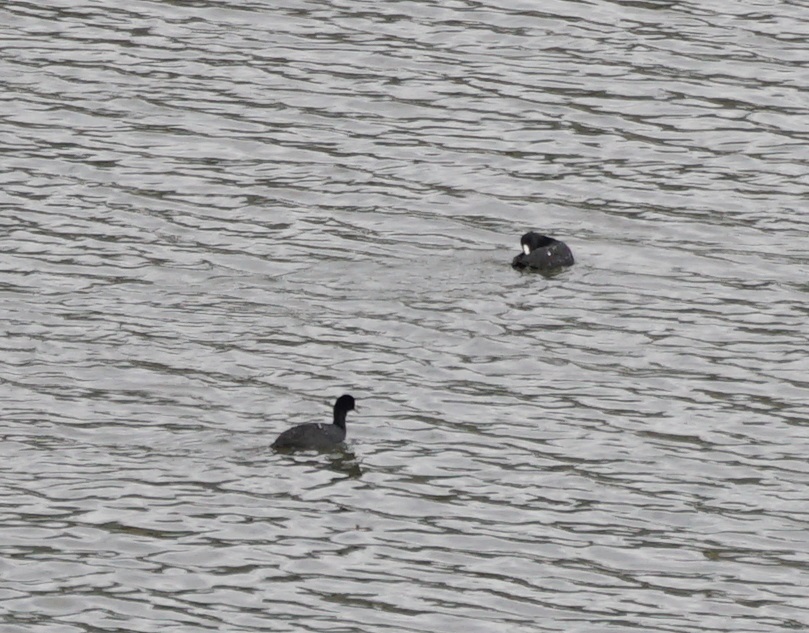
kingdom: Animalia
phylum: Chordata
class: Aves
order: Gruiformes
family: Rallidae
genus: Fulica
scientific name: Fulica atra
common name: Eurasian coot
